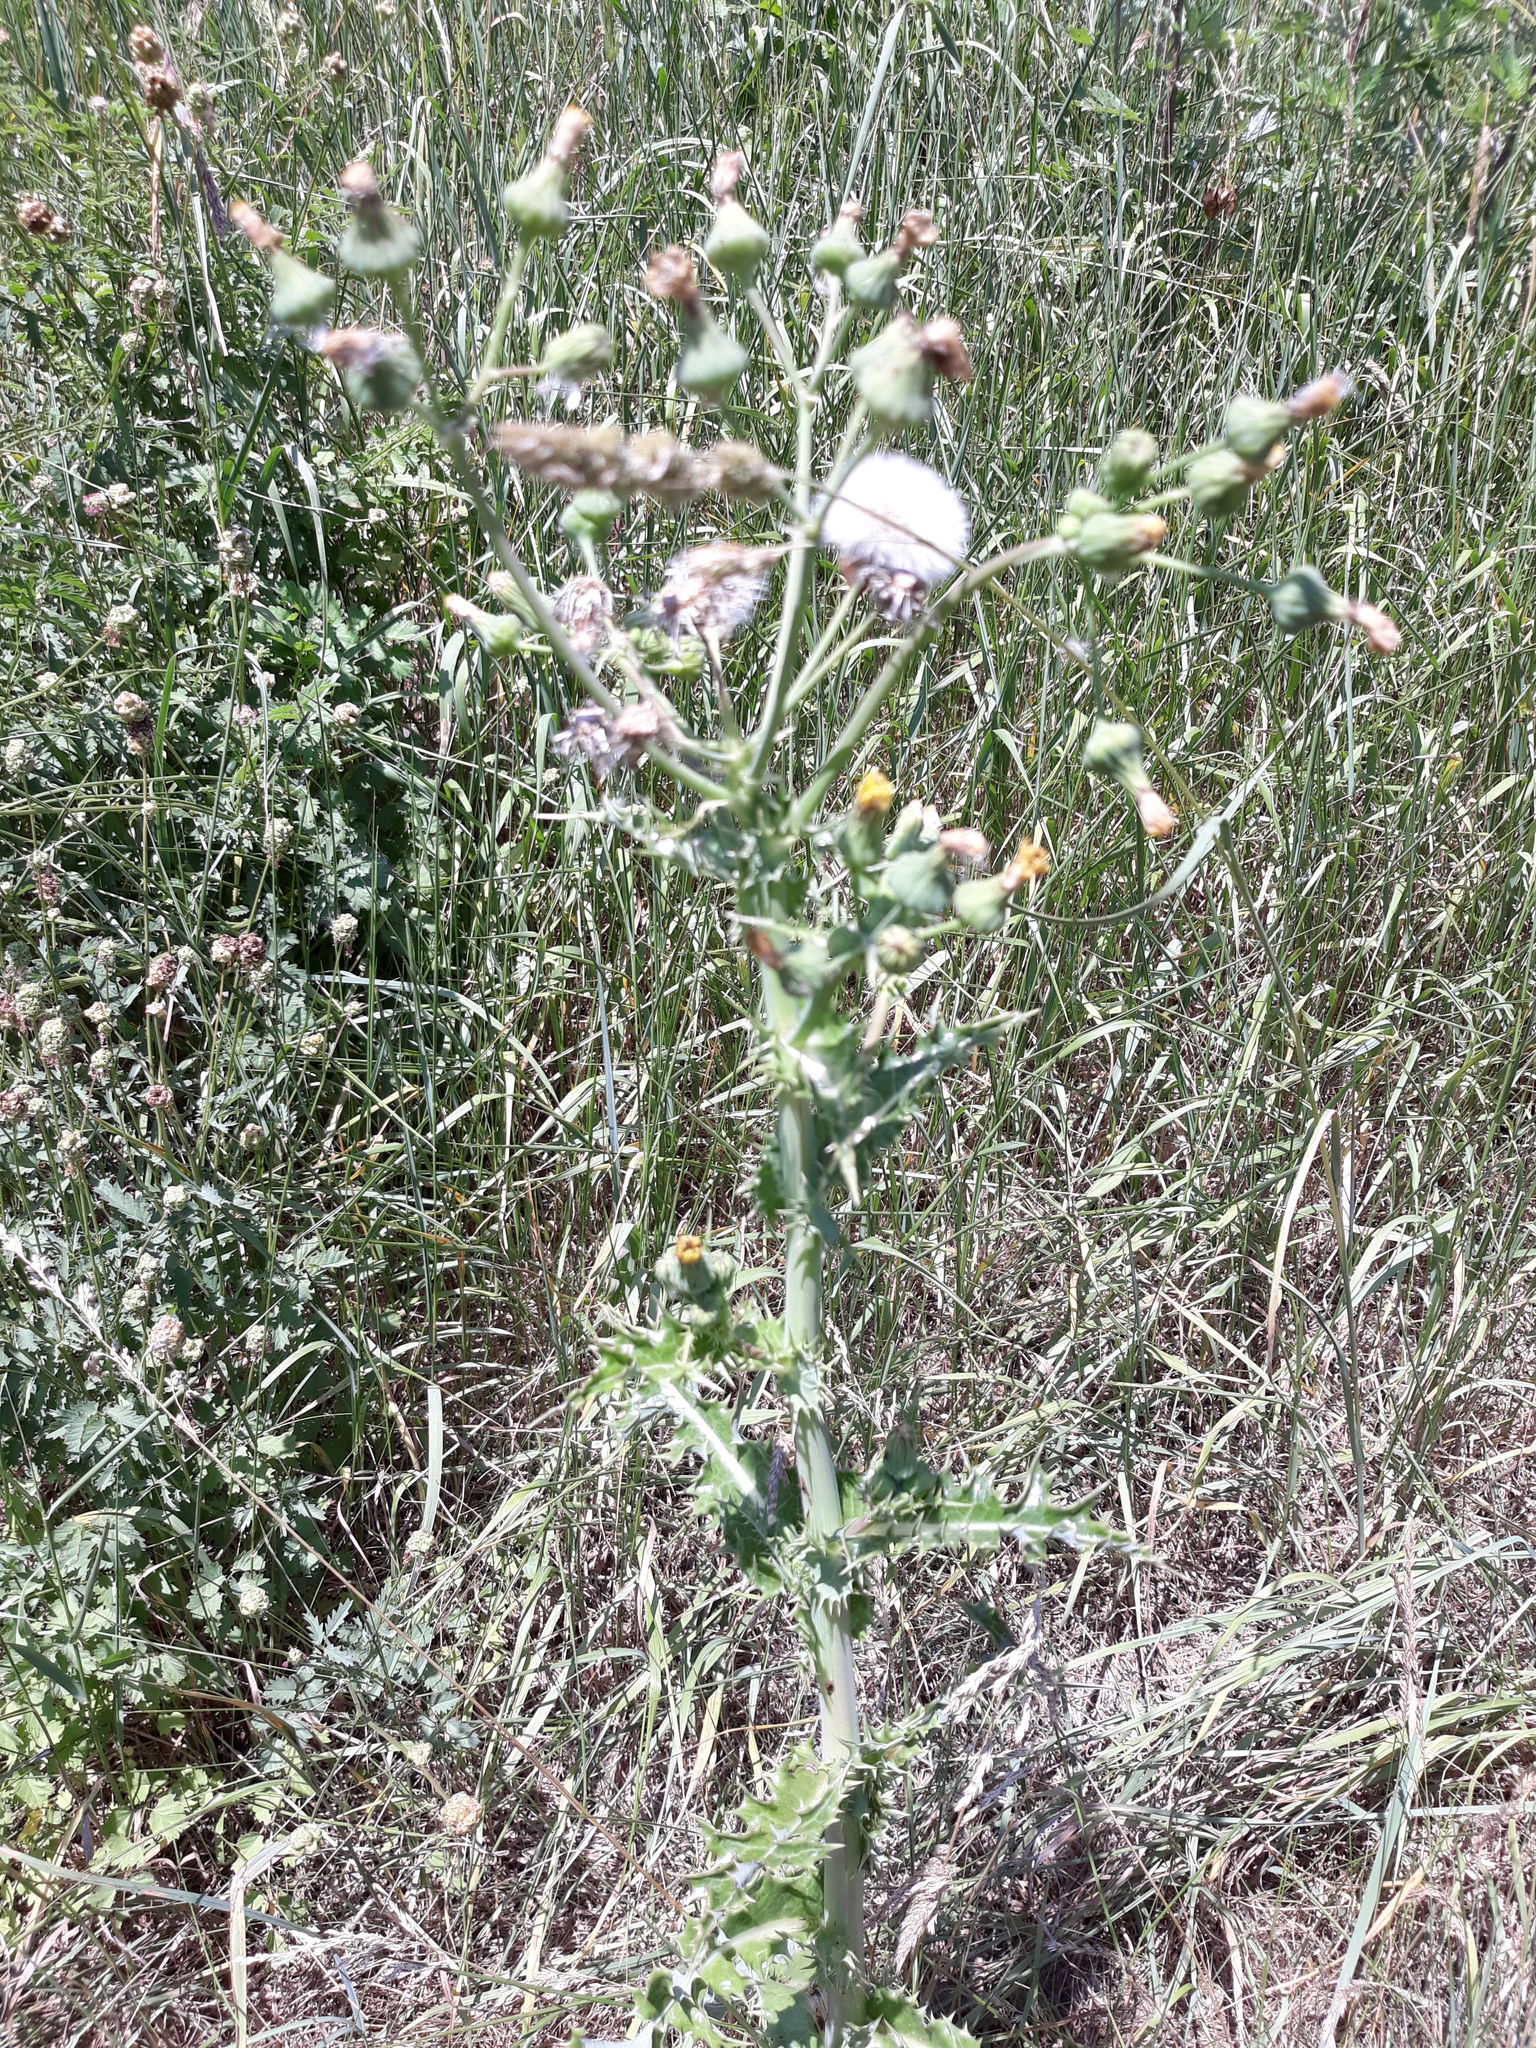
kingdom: Plantae
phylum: Tracheophyta
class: Magnoliopsida
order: Asterales
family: Asteraceae
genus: Sonchus
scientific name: Sonchus asper
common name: Prickly sow-thistle
